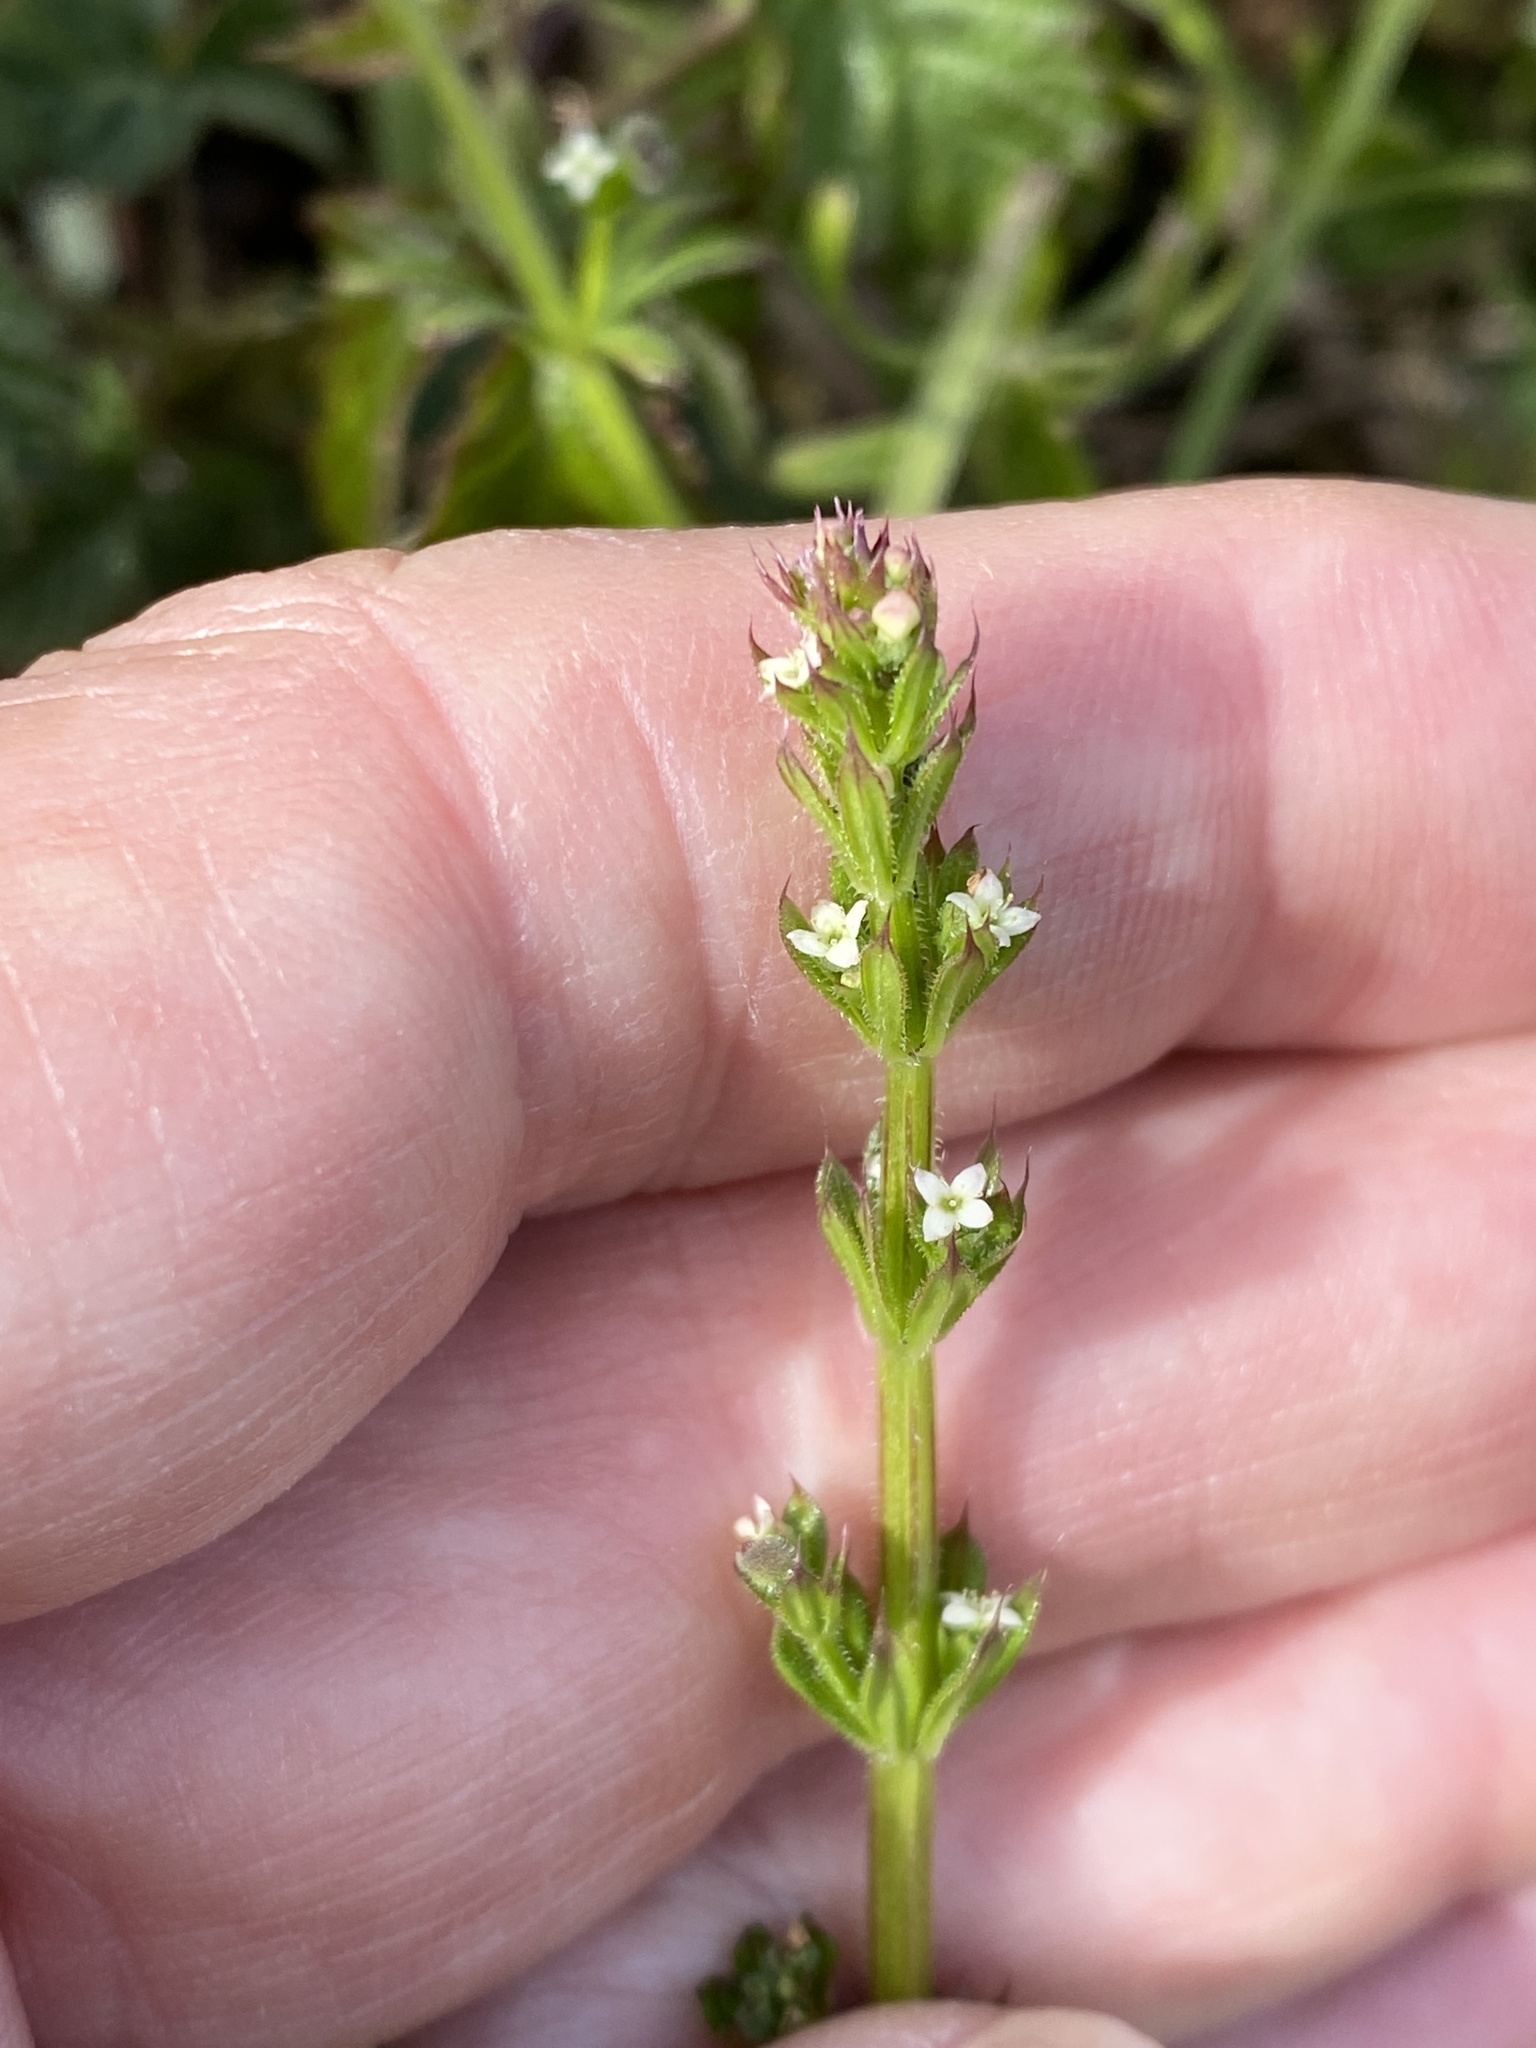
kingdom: Plantae
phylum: Tracheophyta
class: Magnoliopsida
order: Gentianales
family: Rubiaceae
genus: Galium
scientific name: Galium aparine
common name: Cleavers
